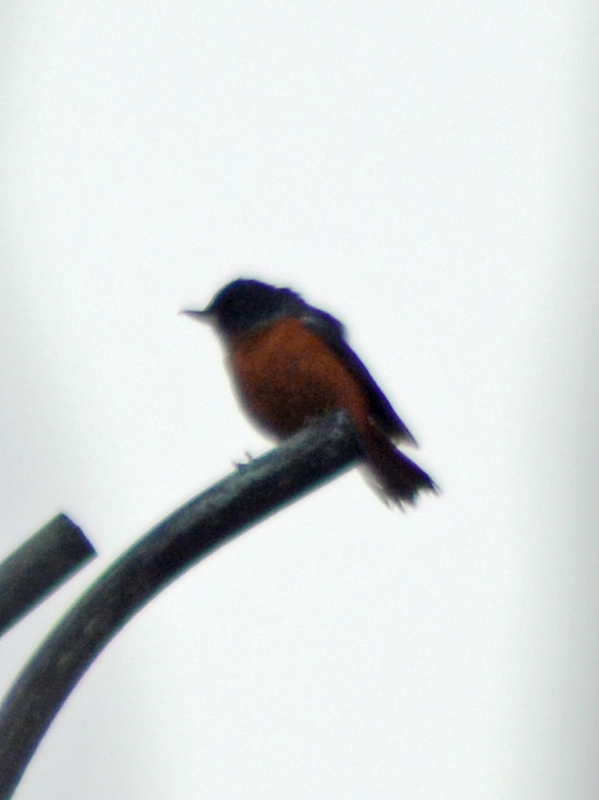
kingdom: Animalia
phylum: Chordata
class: Aves
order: Passeriformes
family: Thraupidae
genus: Diglossa
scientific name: Diglossa baritula
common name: Cinnamon-bellied flowerpiercer
